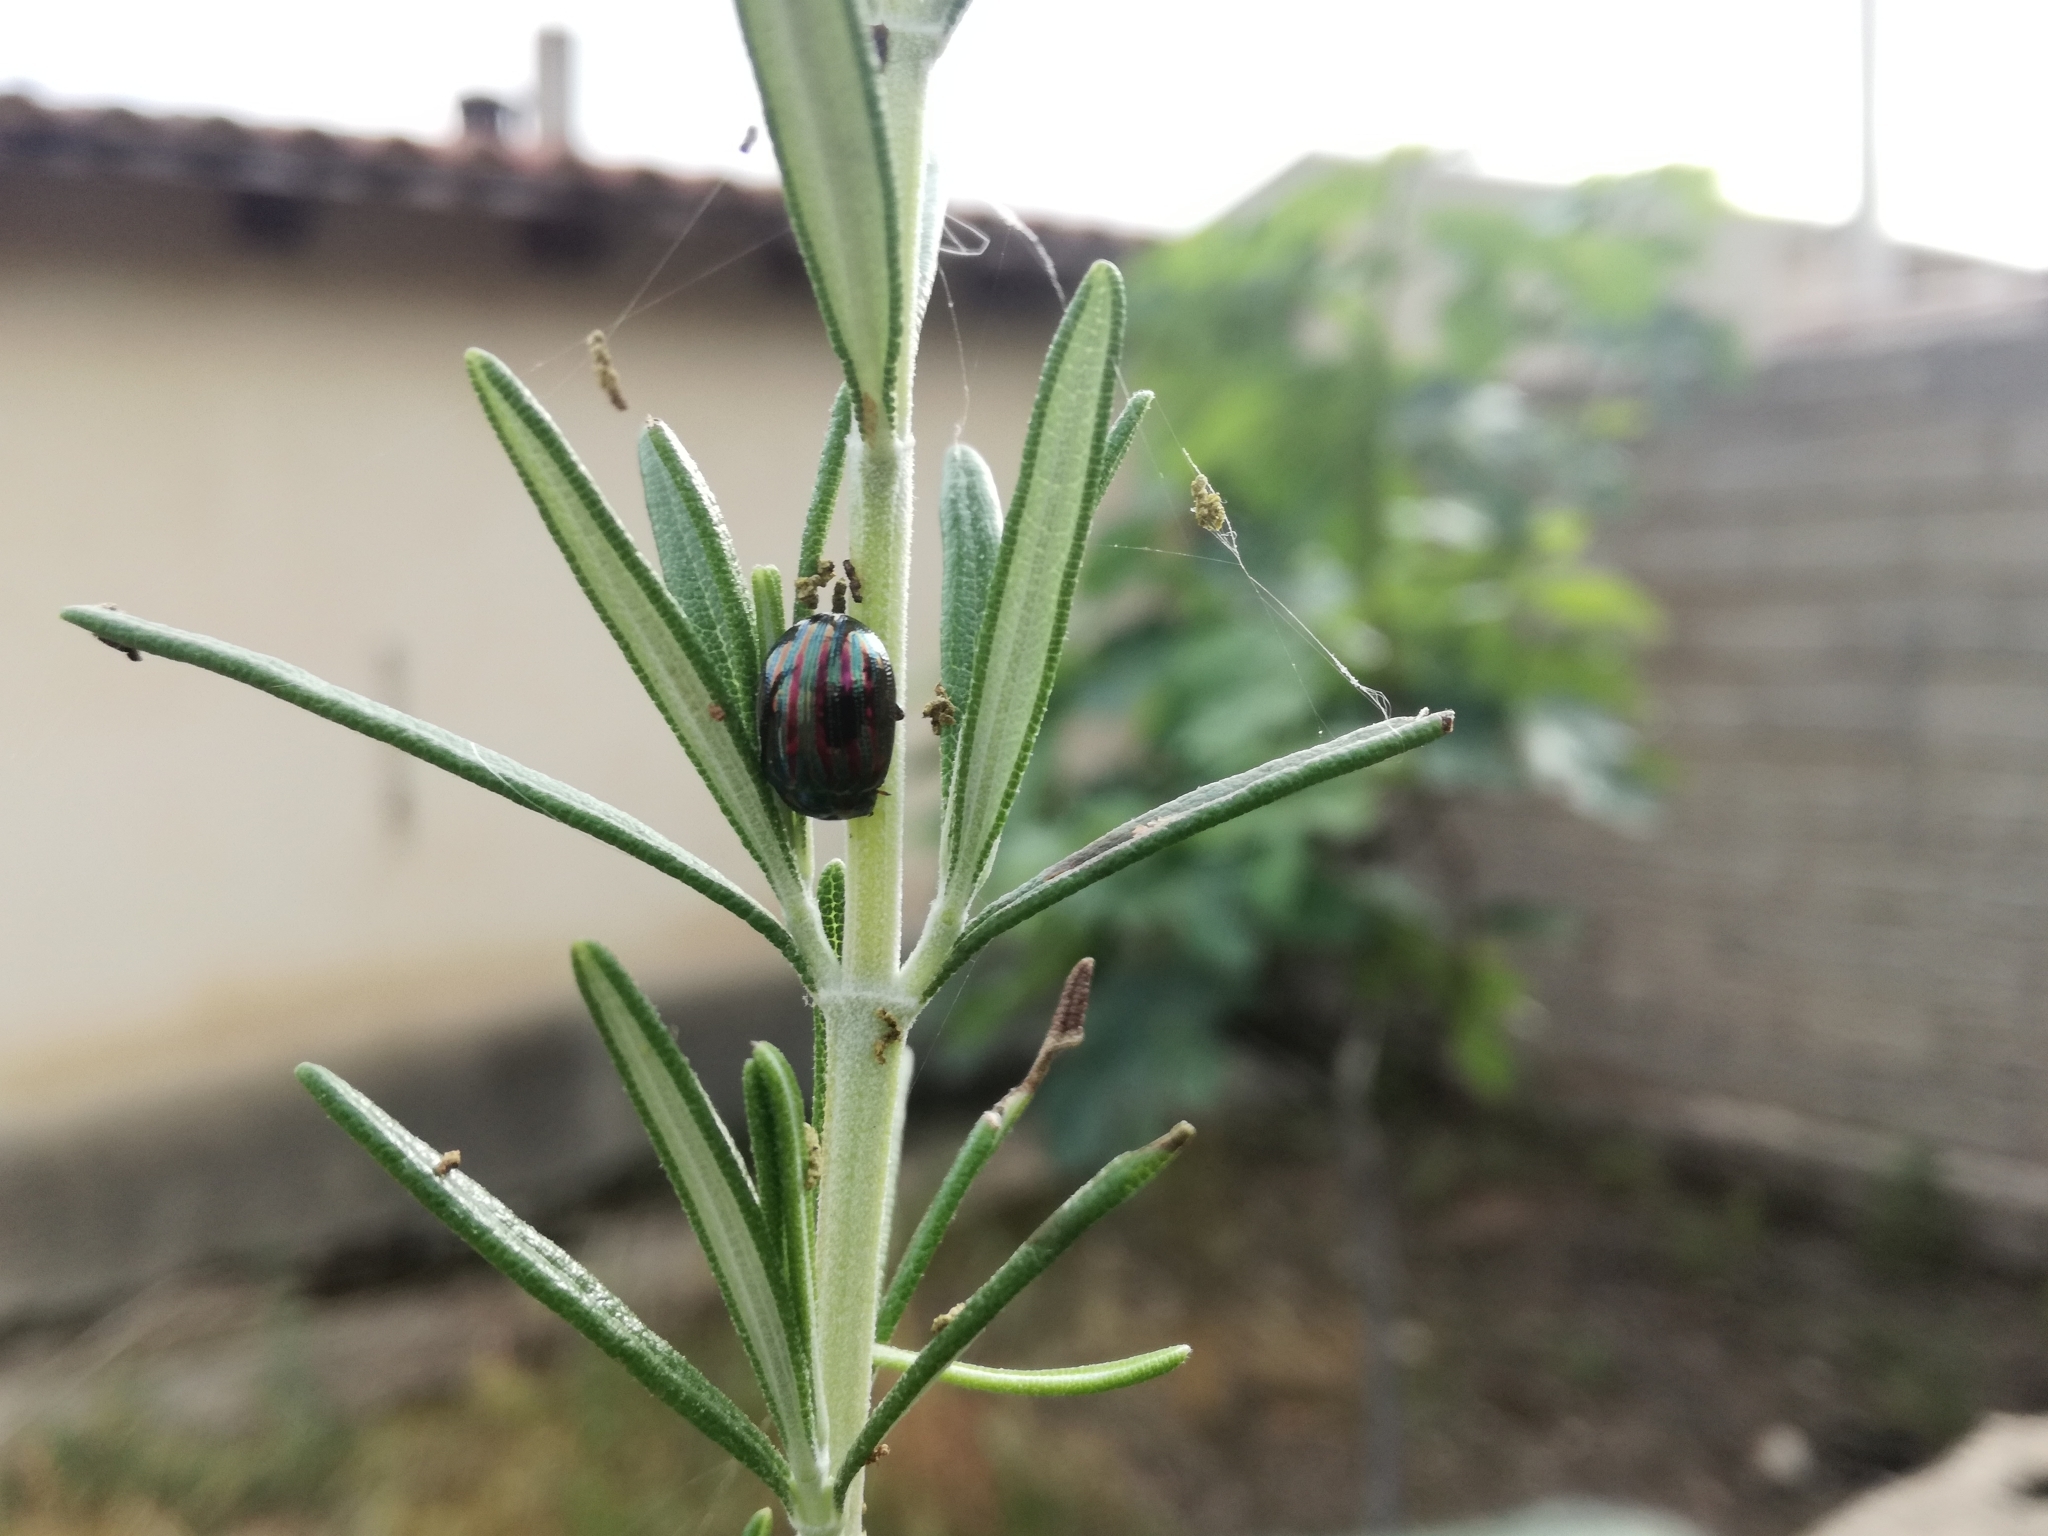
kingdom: Animalia
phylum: Arthropoda
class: Insecta
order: Coleoptera
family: Chrysomelidae
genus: Chrysolina
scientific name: Chrysolina americana
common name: Rosemary beetle
